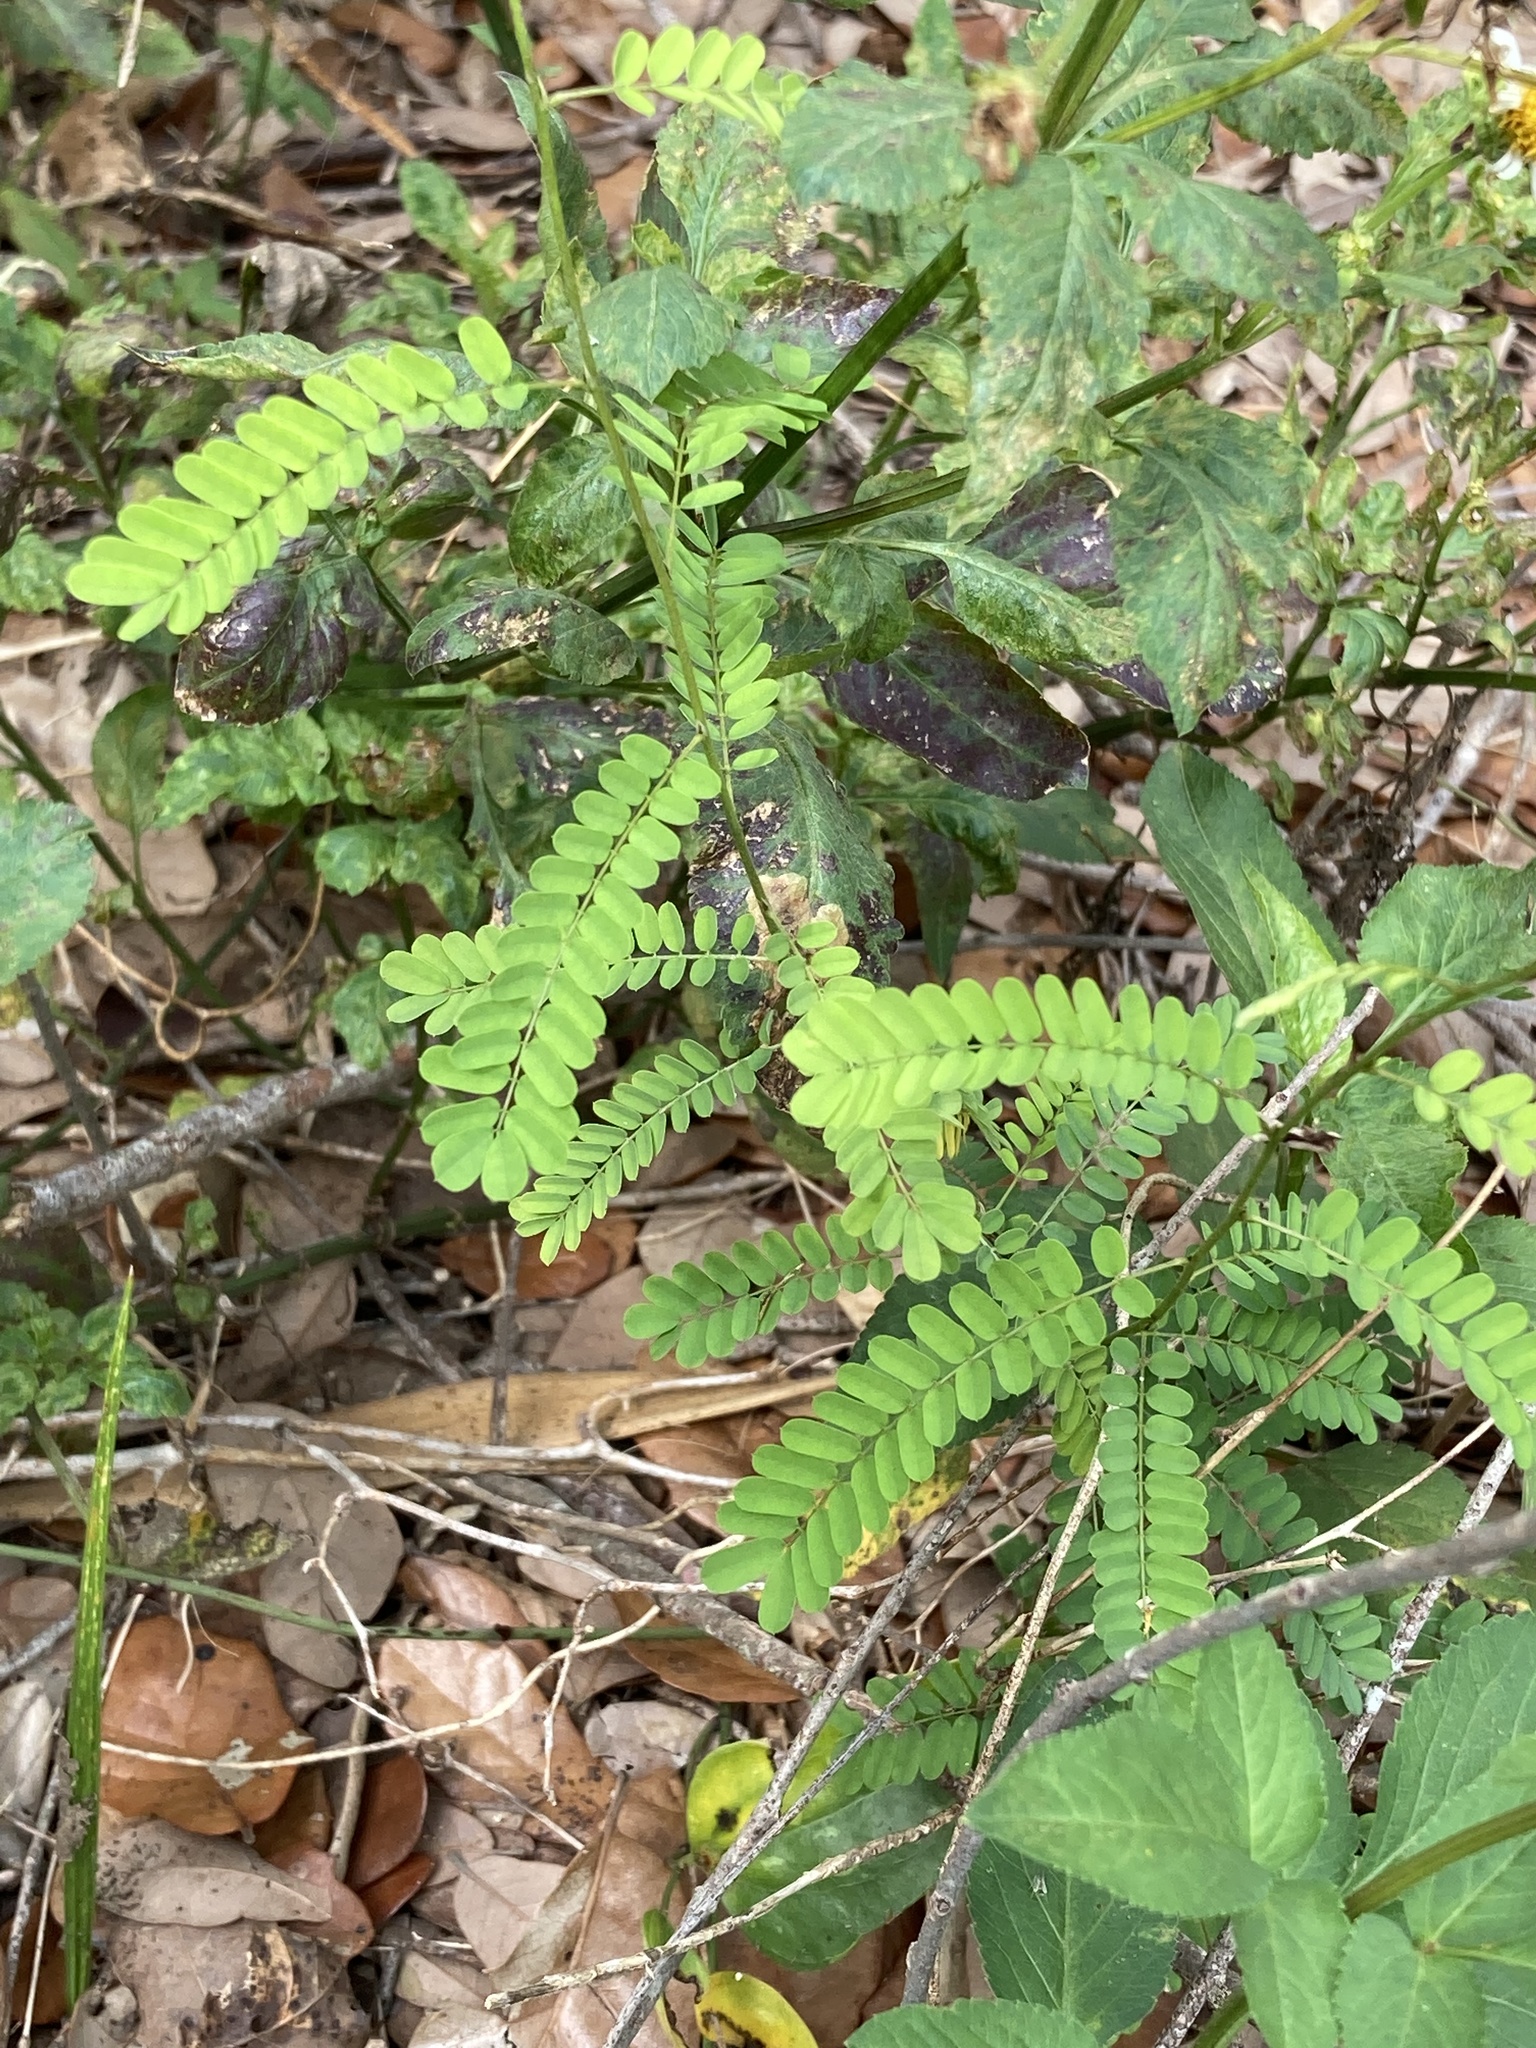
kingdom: Plantae
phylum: Tracheophyta
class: Magnoliopsida
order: Fabales
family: Fabaceae
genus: Abrus
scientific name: Abrus precatorius
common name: Rosarypea
